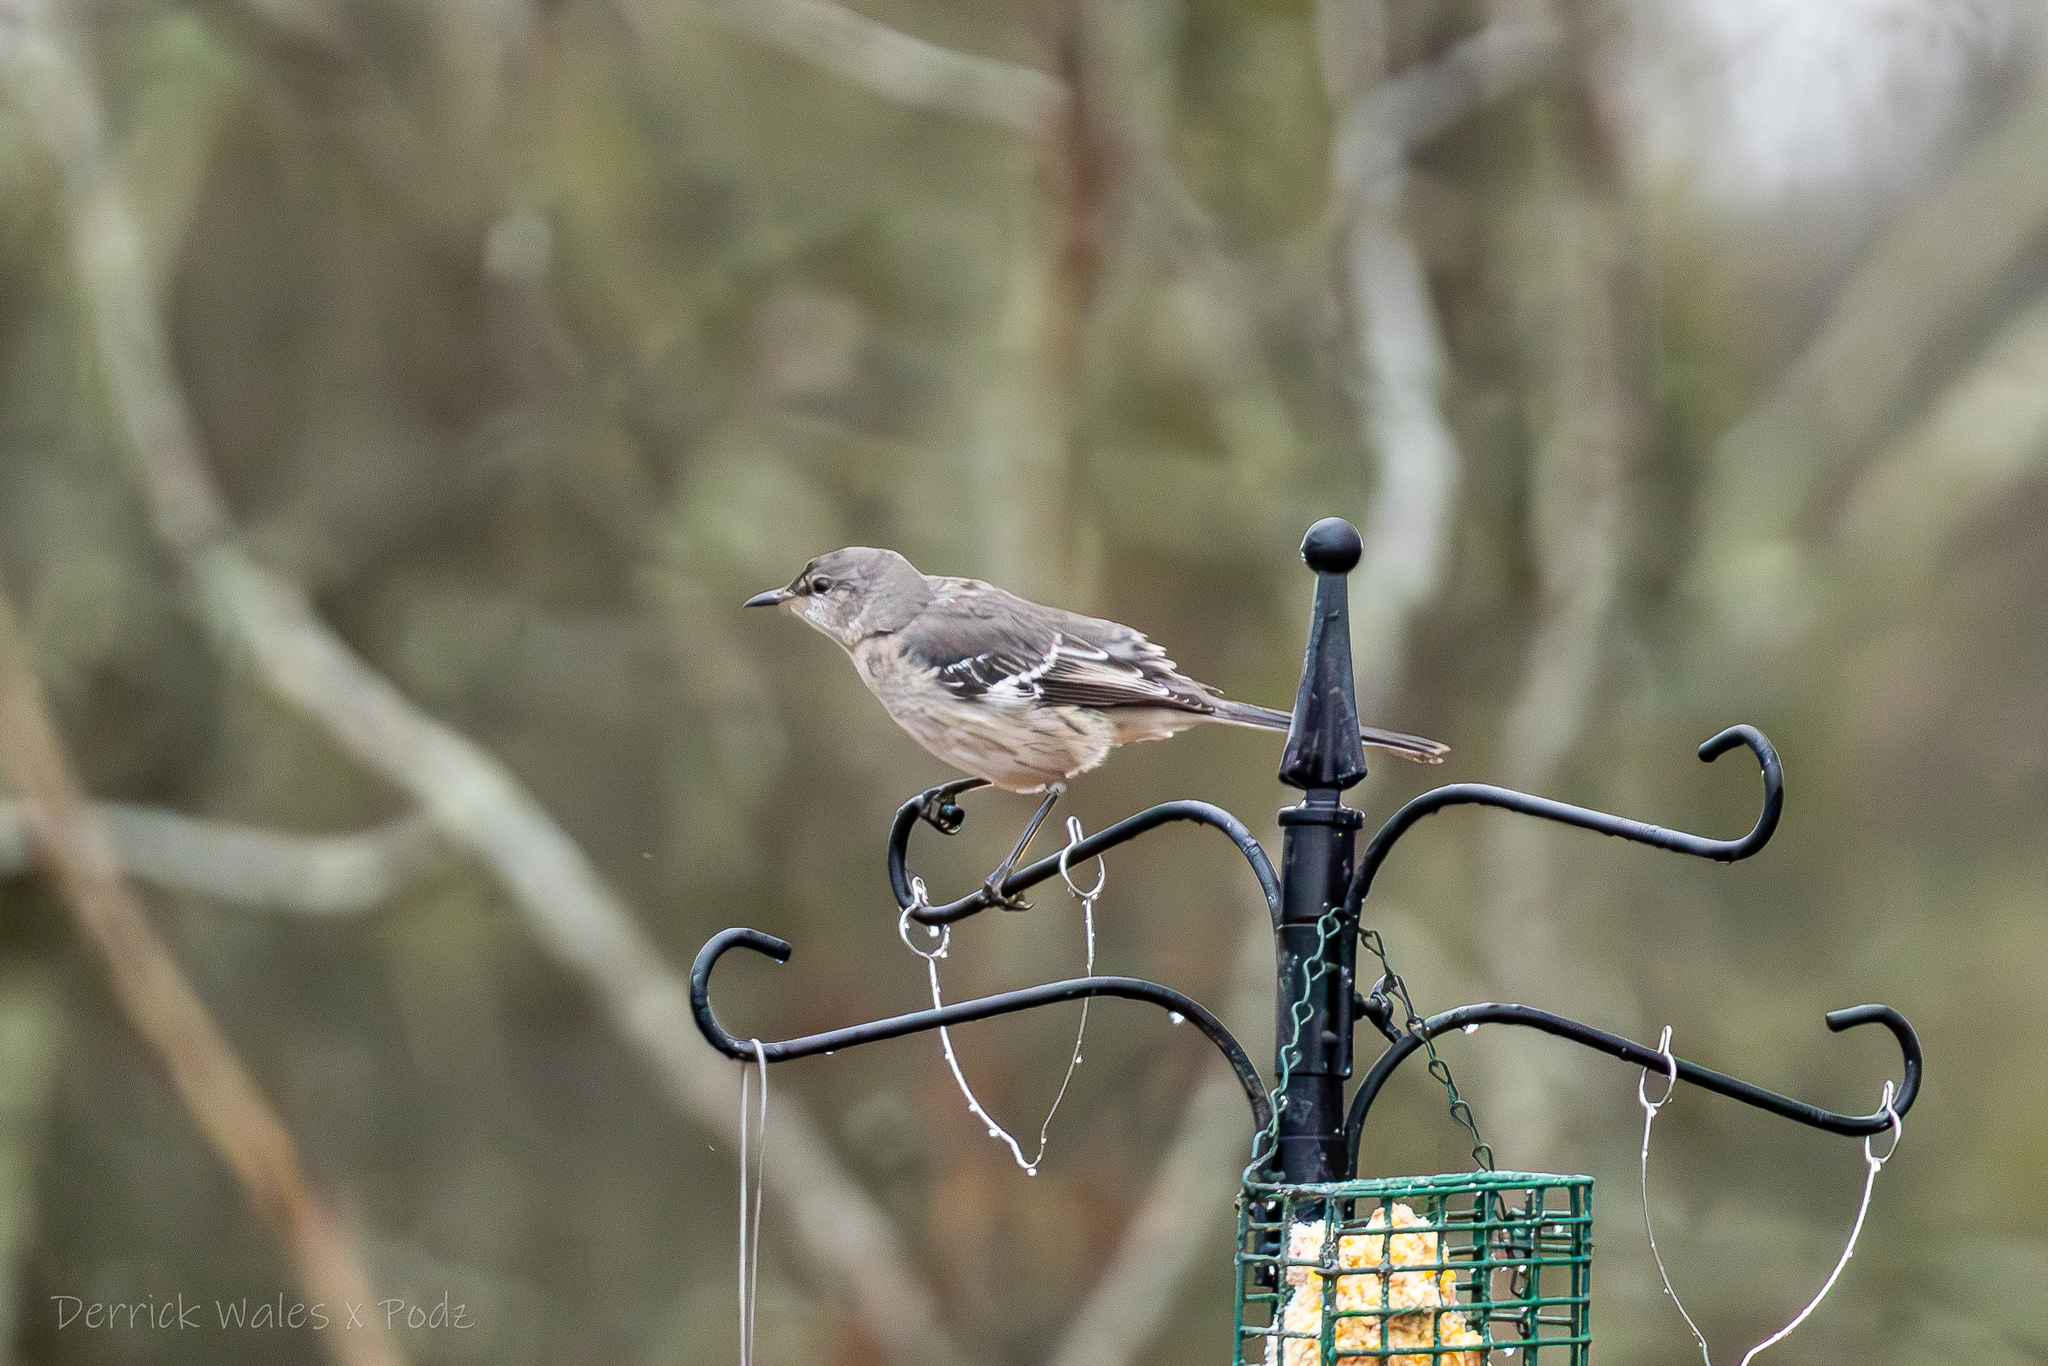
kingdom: Animalia
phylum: Chordata
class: Aves
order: Passeriformes
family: Mimidae
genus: Mimus
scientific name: Mimus polyglottos
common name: Northern mockingbird
